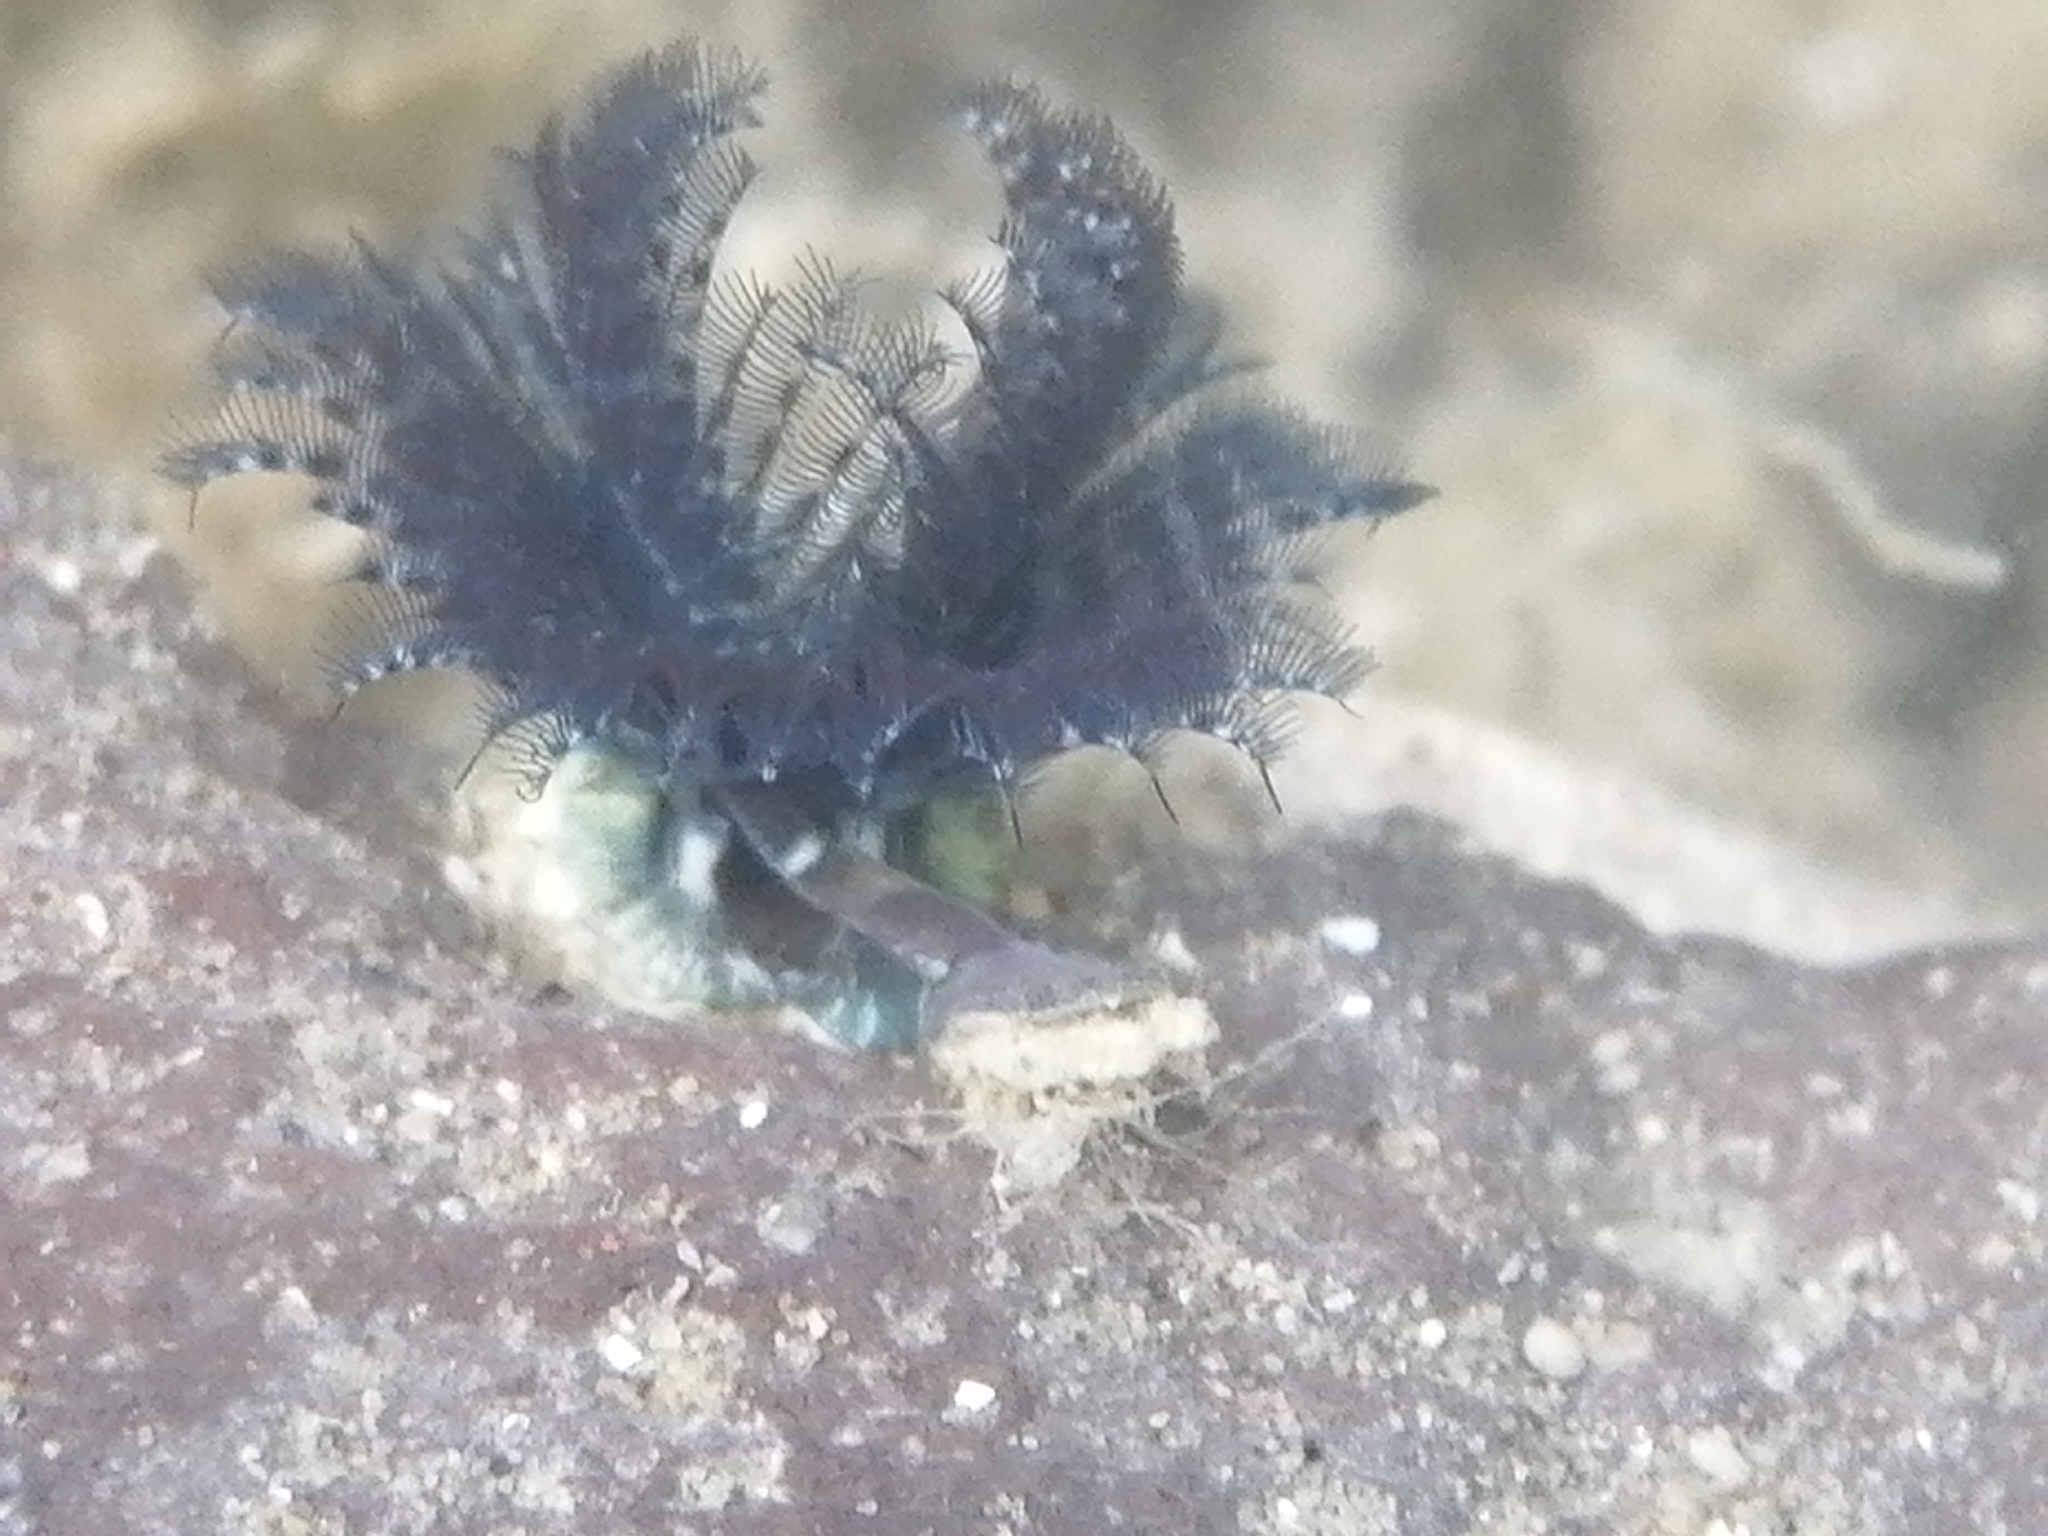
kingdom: Animalia
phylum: Annelida
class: Polychaeta
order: Sabellida
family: Serpulidae
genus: Spirobranchus
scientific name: Spirobranchus cariniferus
